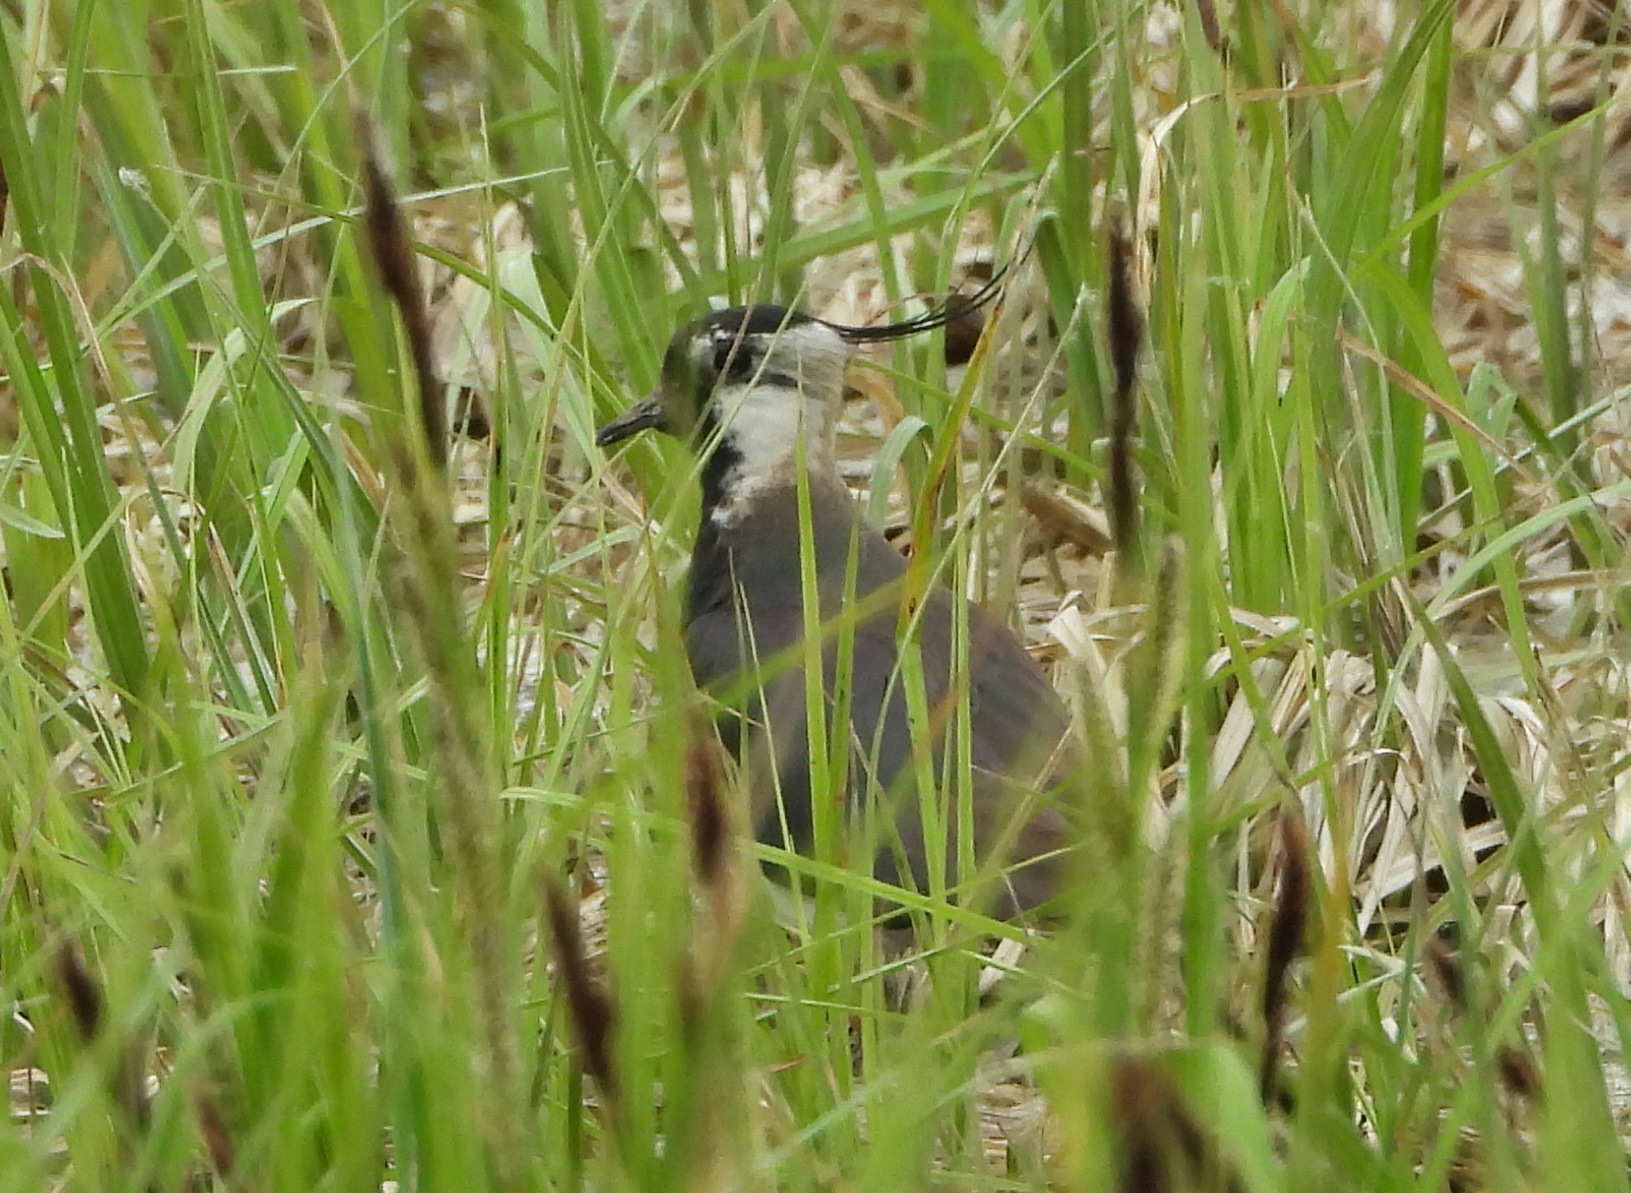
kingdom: Animalia
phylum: Chordata
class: Aves
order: Charadriiformes
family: Charadriidae
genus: Vanellus
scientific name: Vanellus vanellus
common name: Northern lapwing
